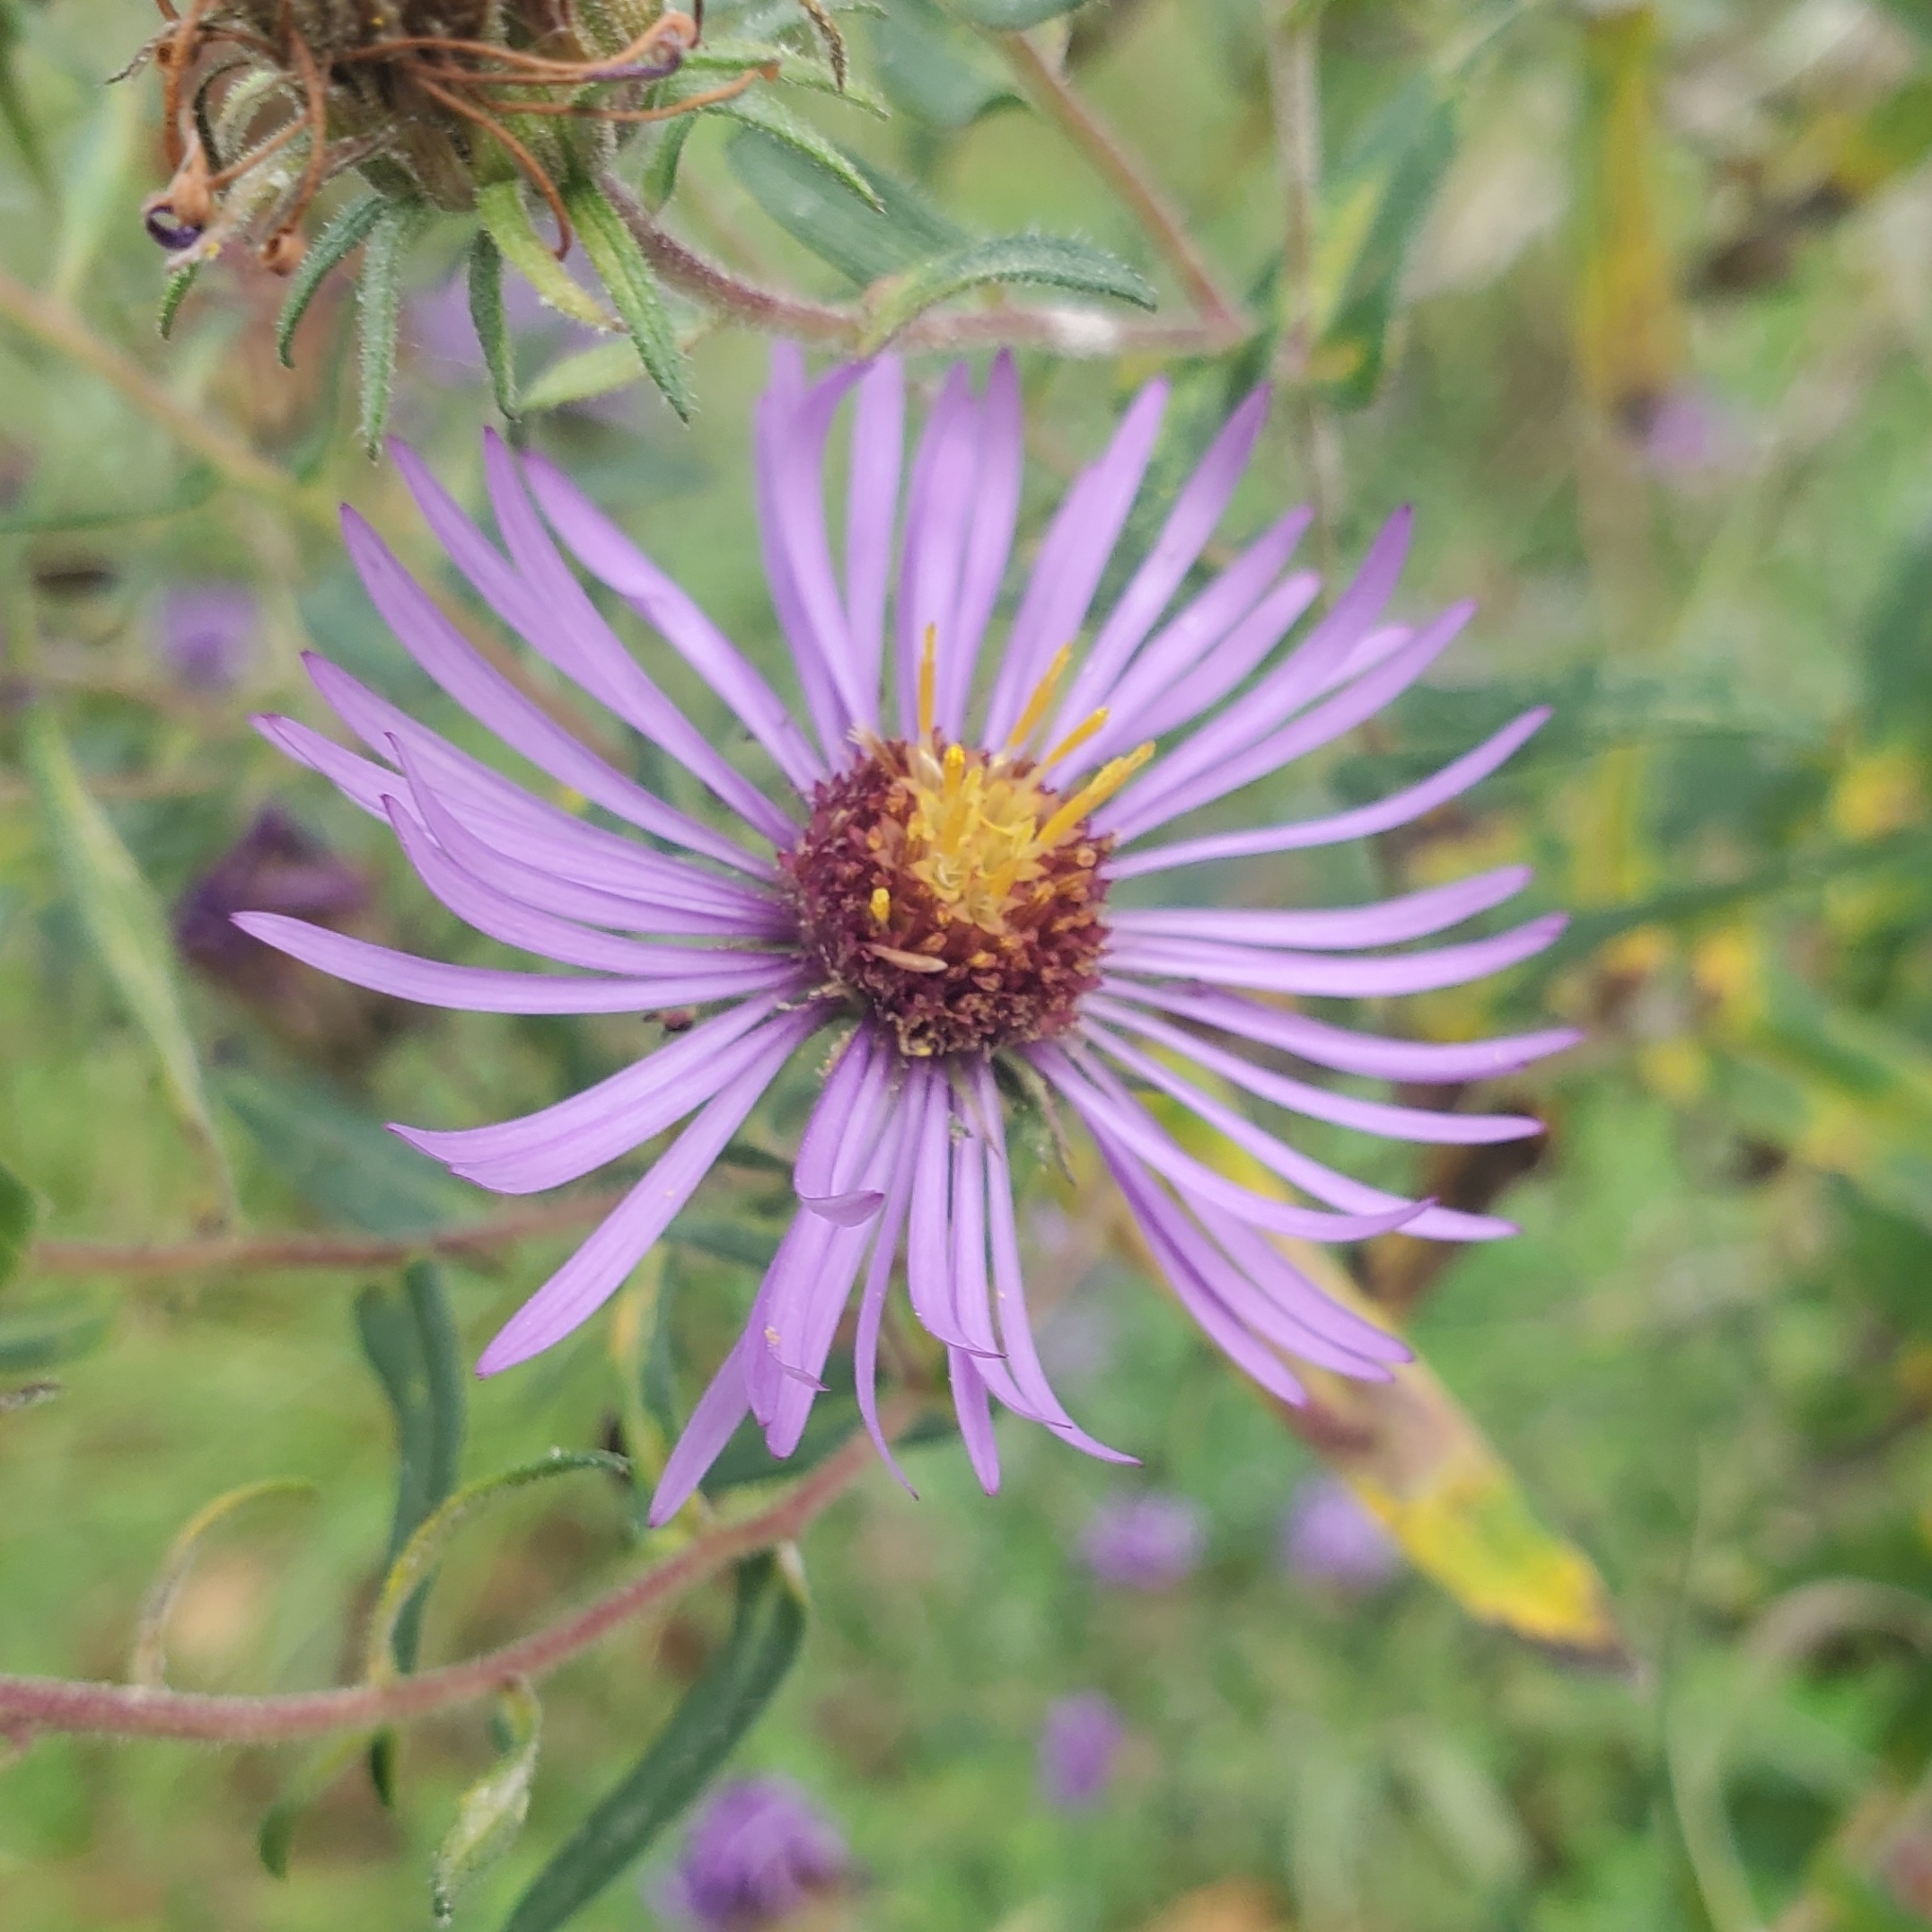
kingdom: Plantae
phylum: Tracheophyta
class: Magnoliopsida
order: Asterales
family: Asteraceae
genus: Symphyotrichum
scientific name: Symphyotrichum novae-angliae
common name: Michaelmas daisy
